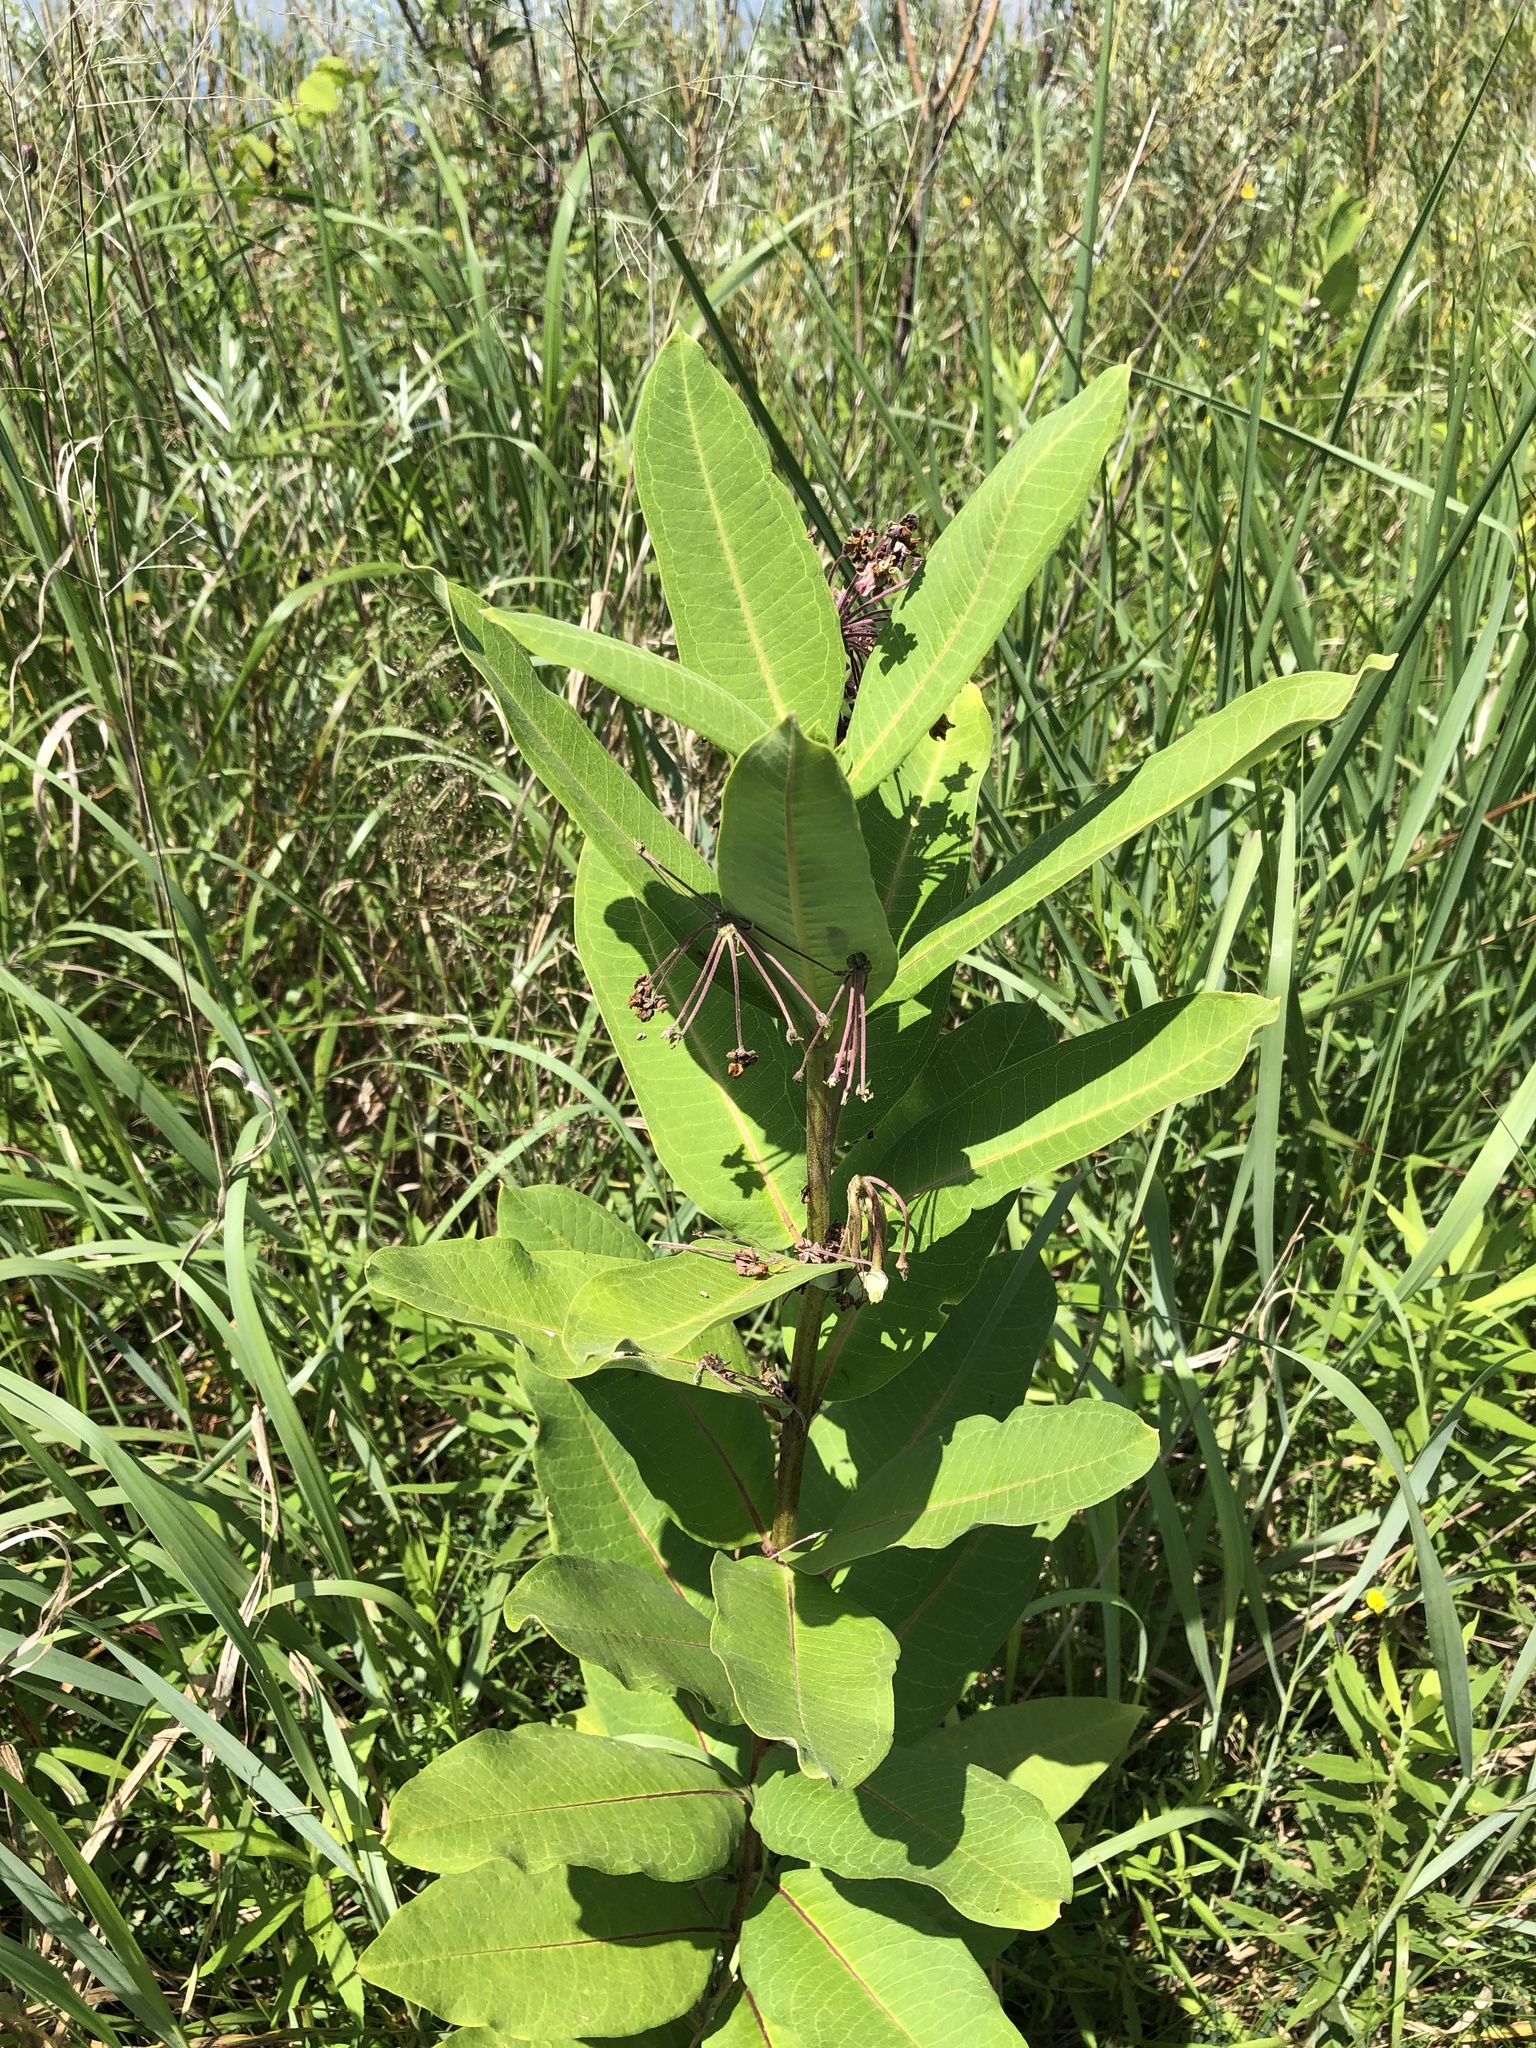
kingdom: Plantae
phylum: Tracheophyta
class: Magnoliopsida
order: Gentianales
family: Apocynaceae
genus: Asclepias
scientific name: Asclepias syriaca
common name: Common milkweed
